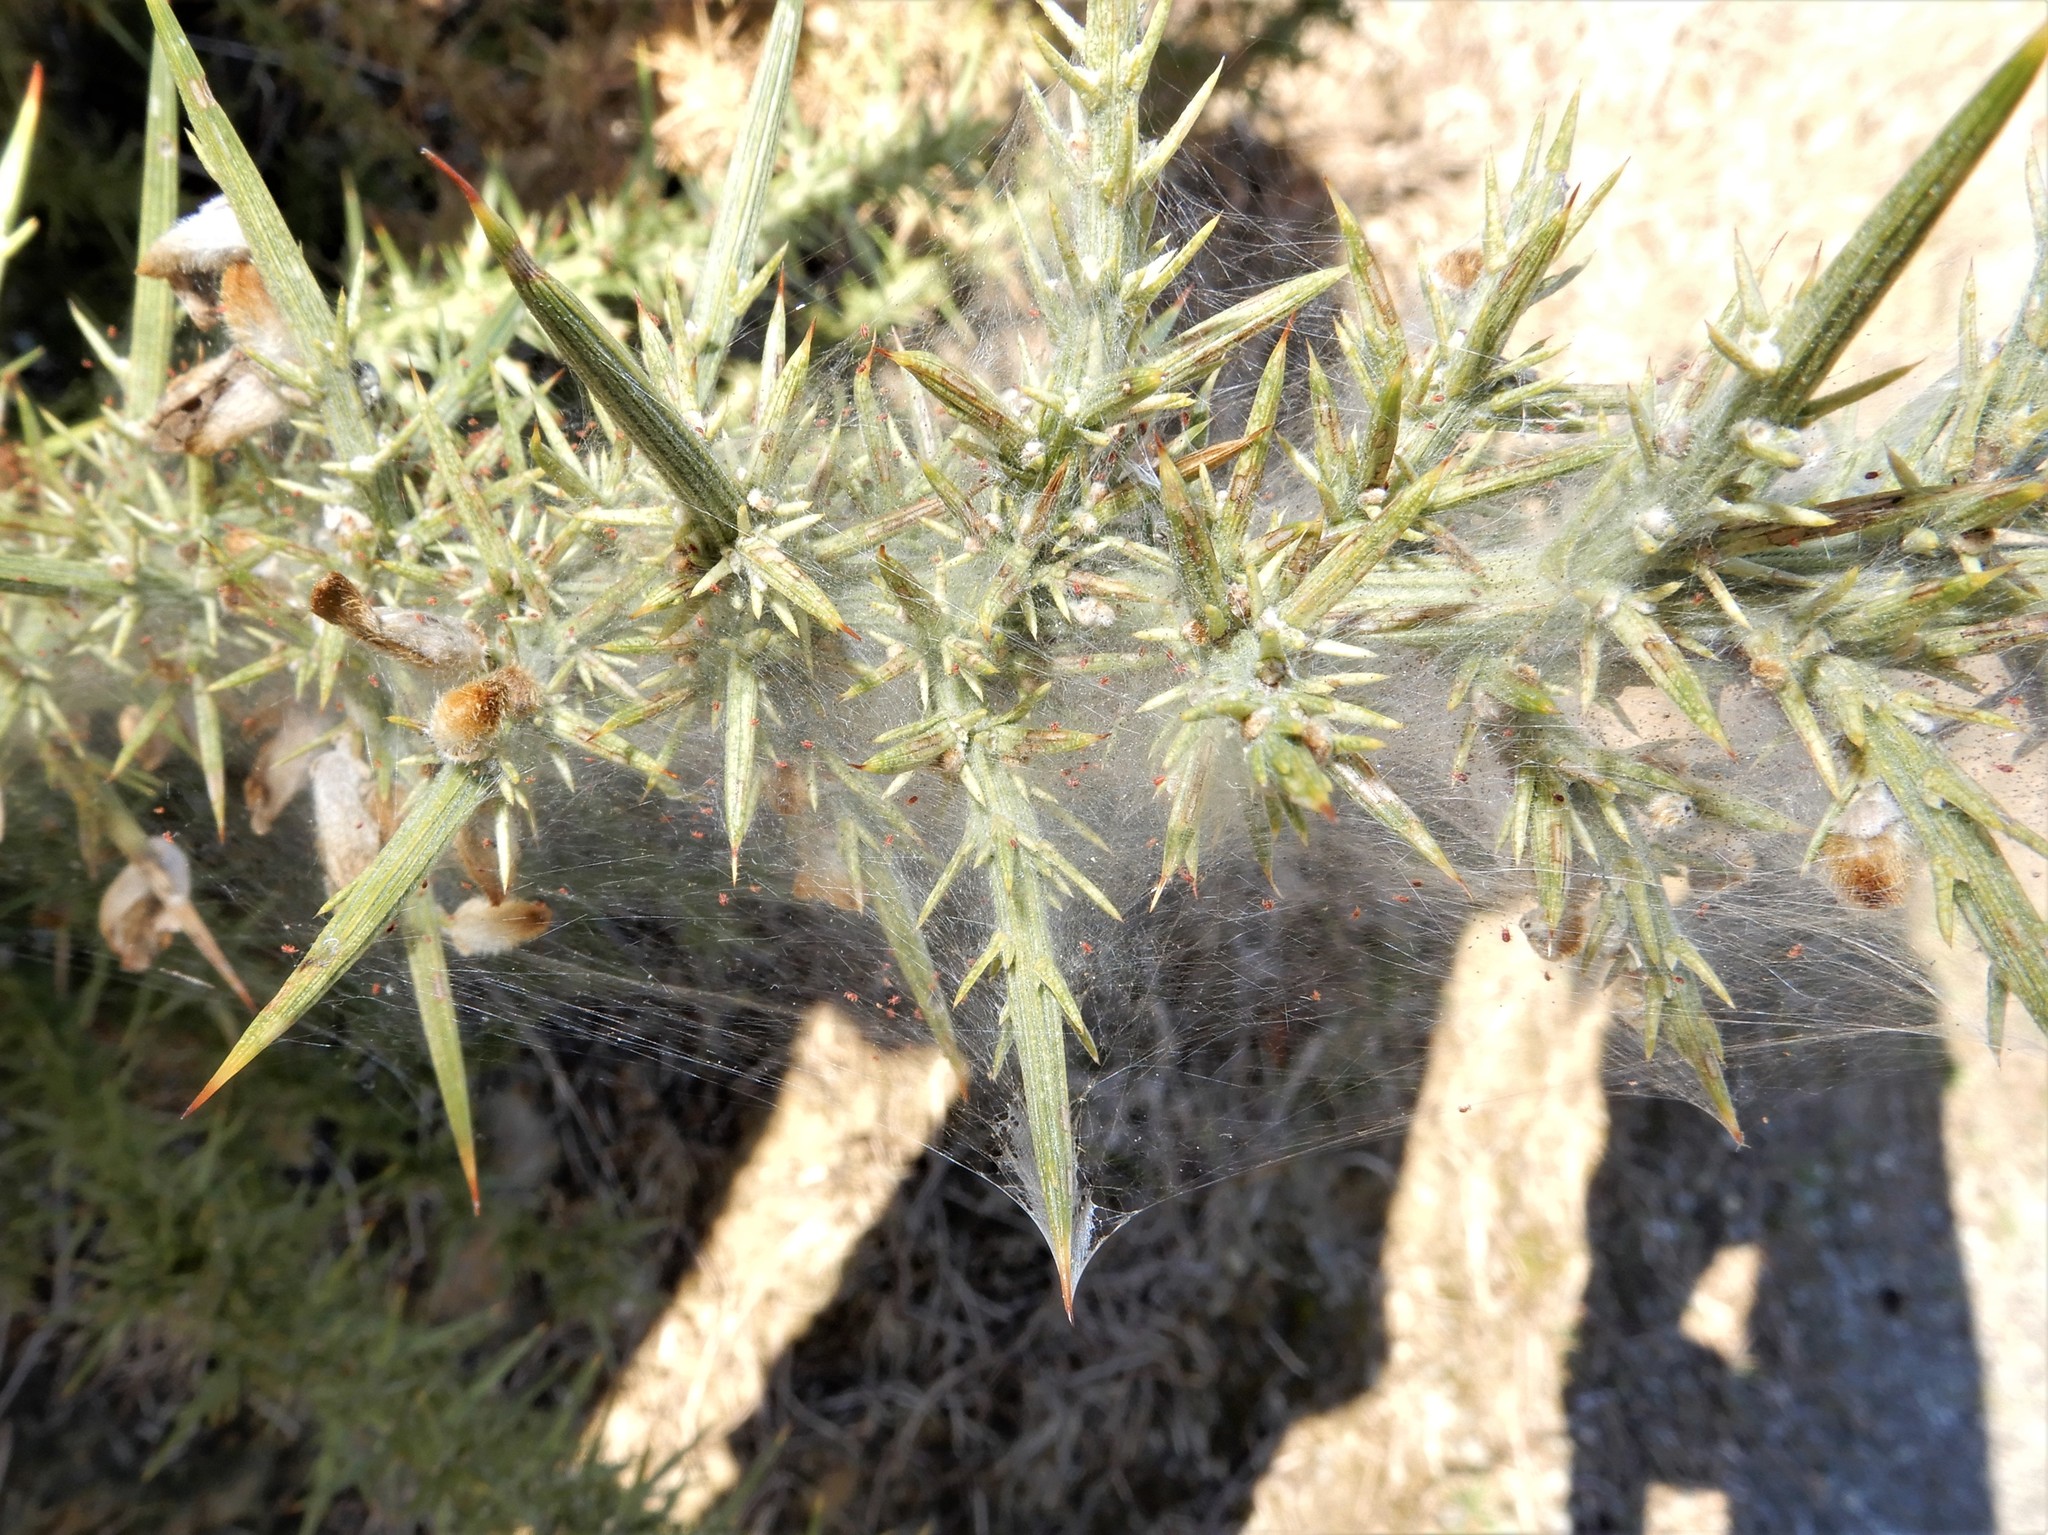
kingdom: Animalia
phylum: Arthropoda
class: Arachnida
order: Trombidiformes
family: Tetranychidae
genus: Tetranychus
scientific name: Tetranychus lintearius
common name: Gorse spider mite
